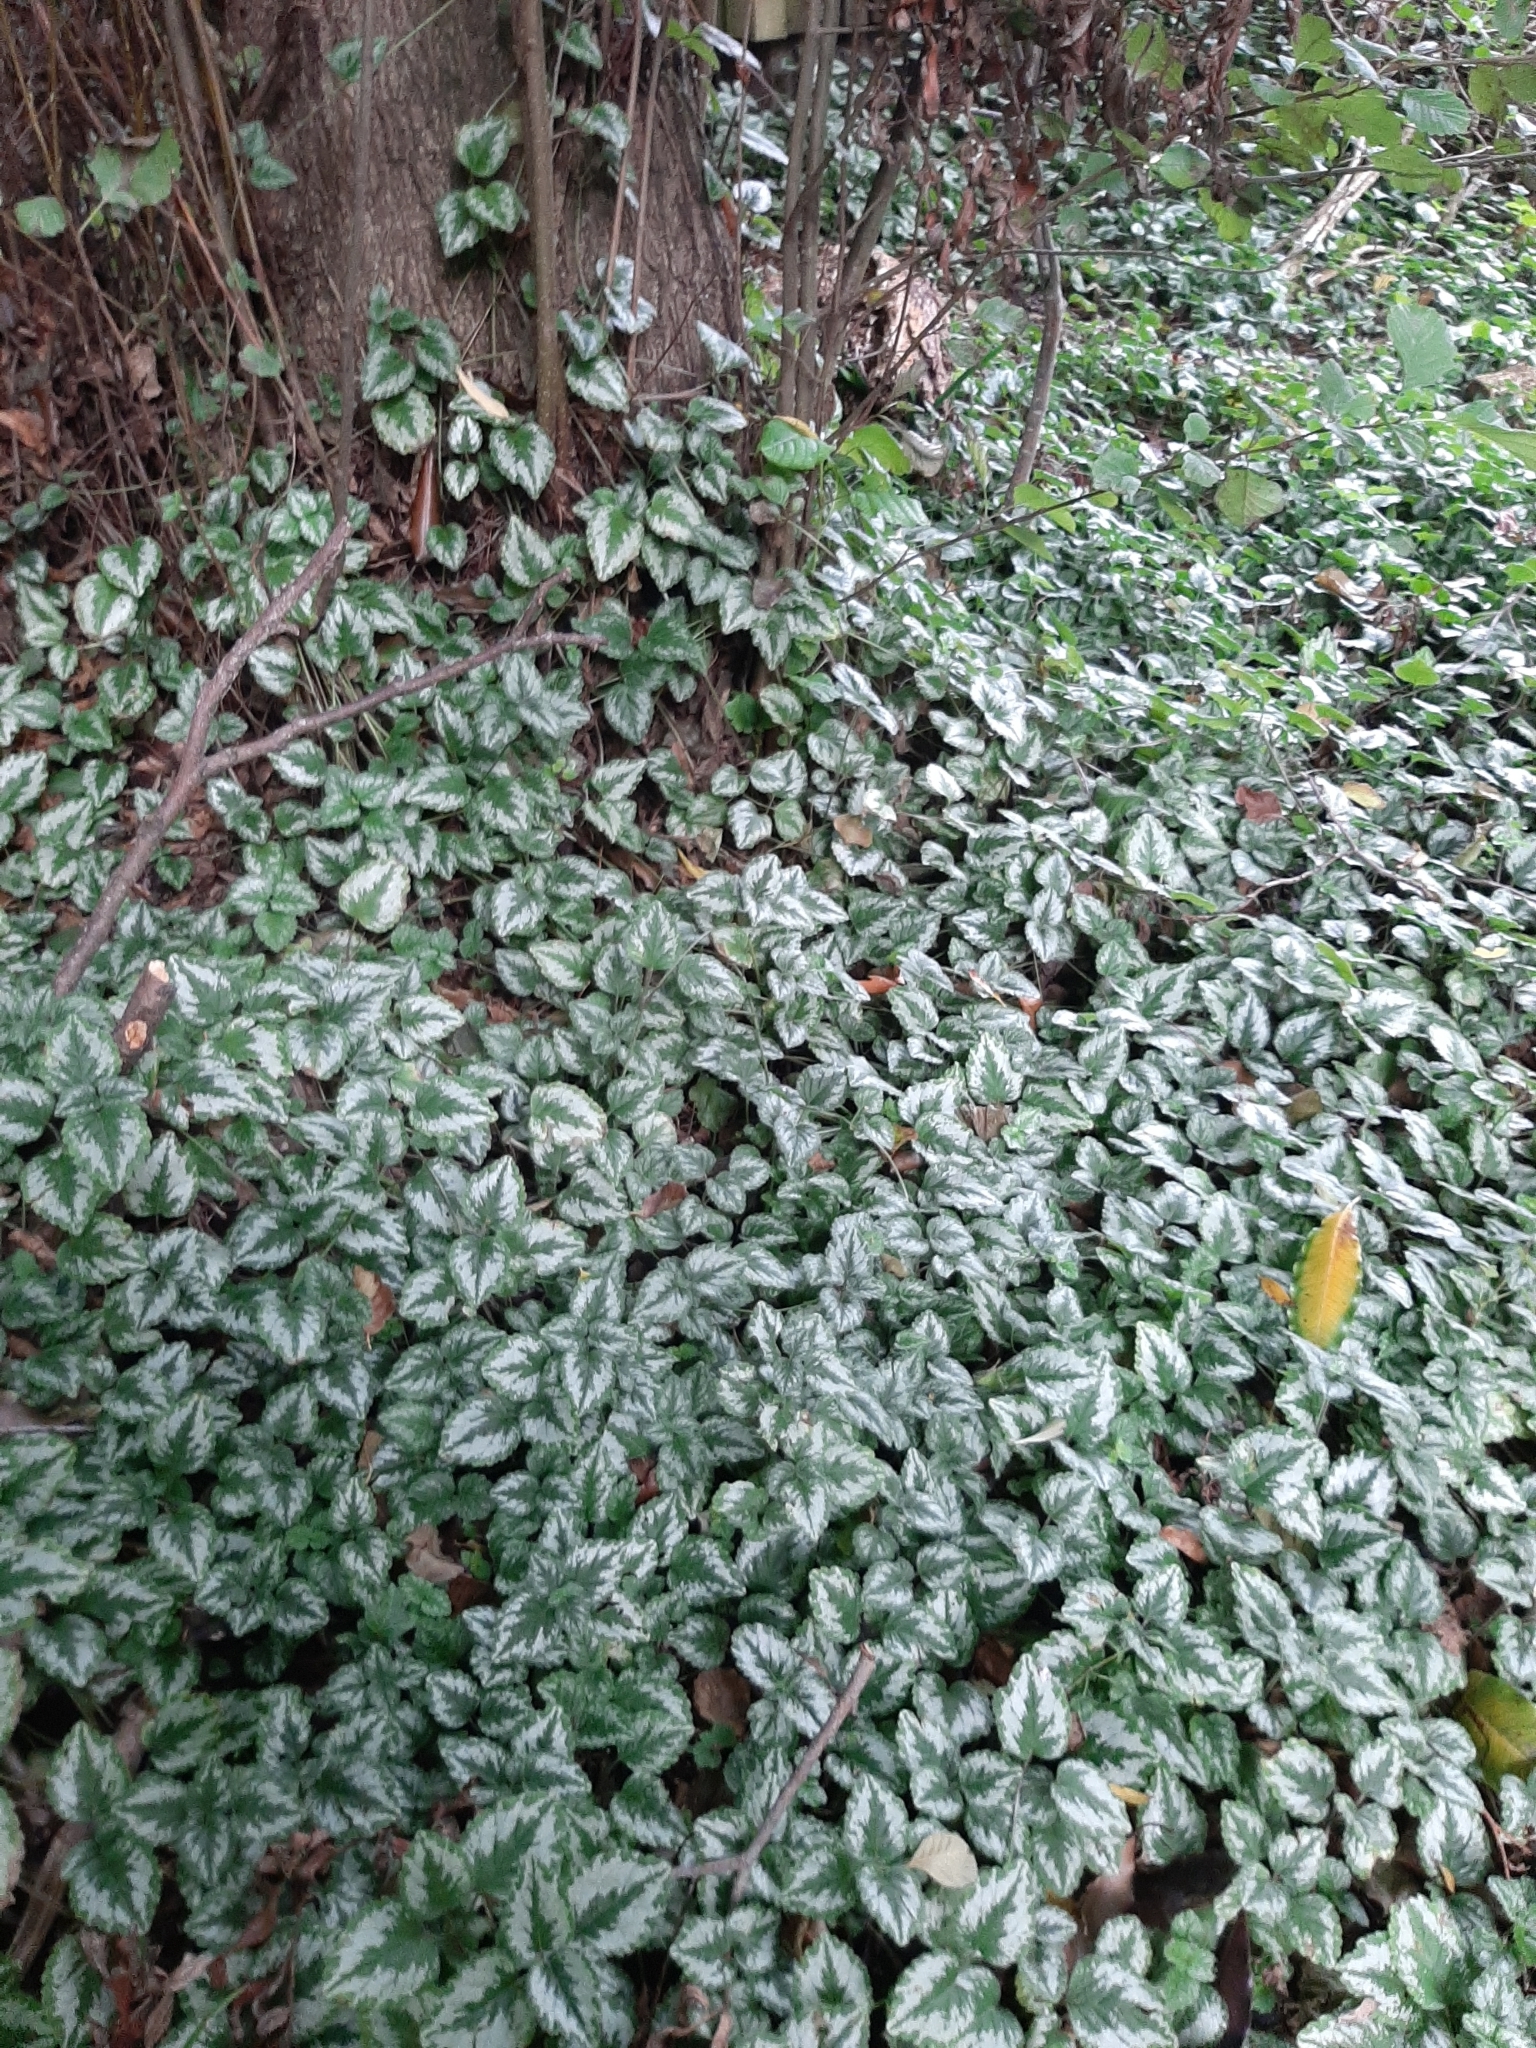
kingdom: Plantae
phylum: Tracheophyta
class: Magnoliopsida
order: Lamiales
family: Lamiaceae
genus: Lamium
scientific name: Lamium galeobdolon
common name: Yellow archangel
